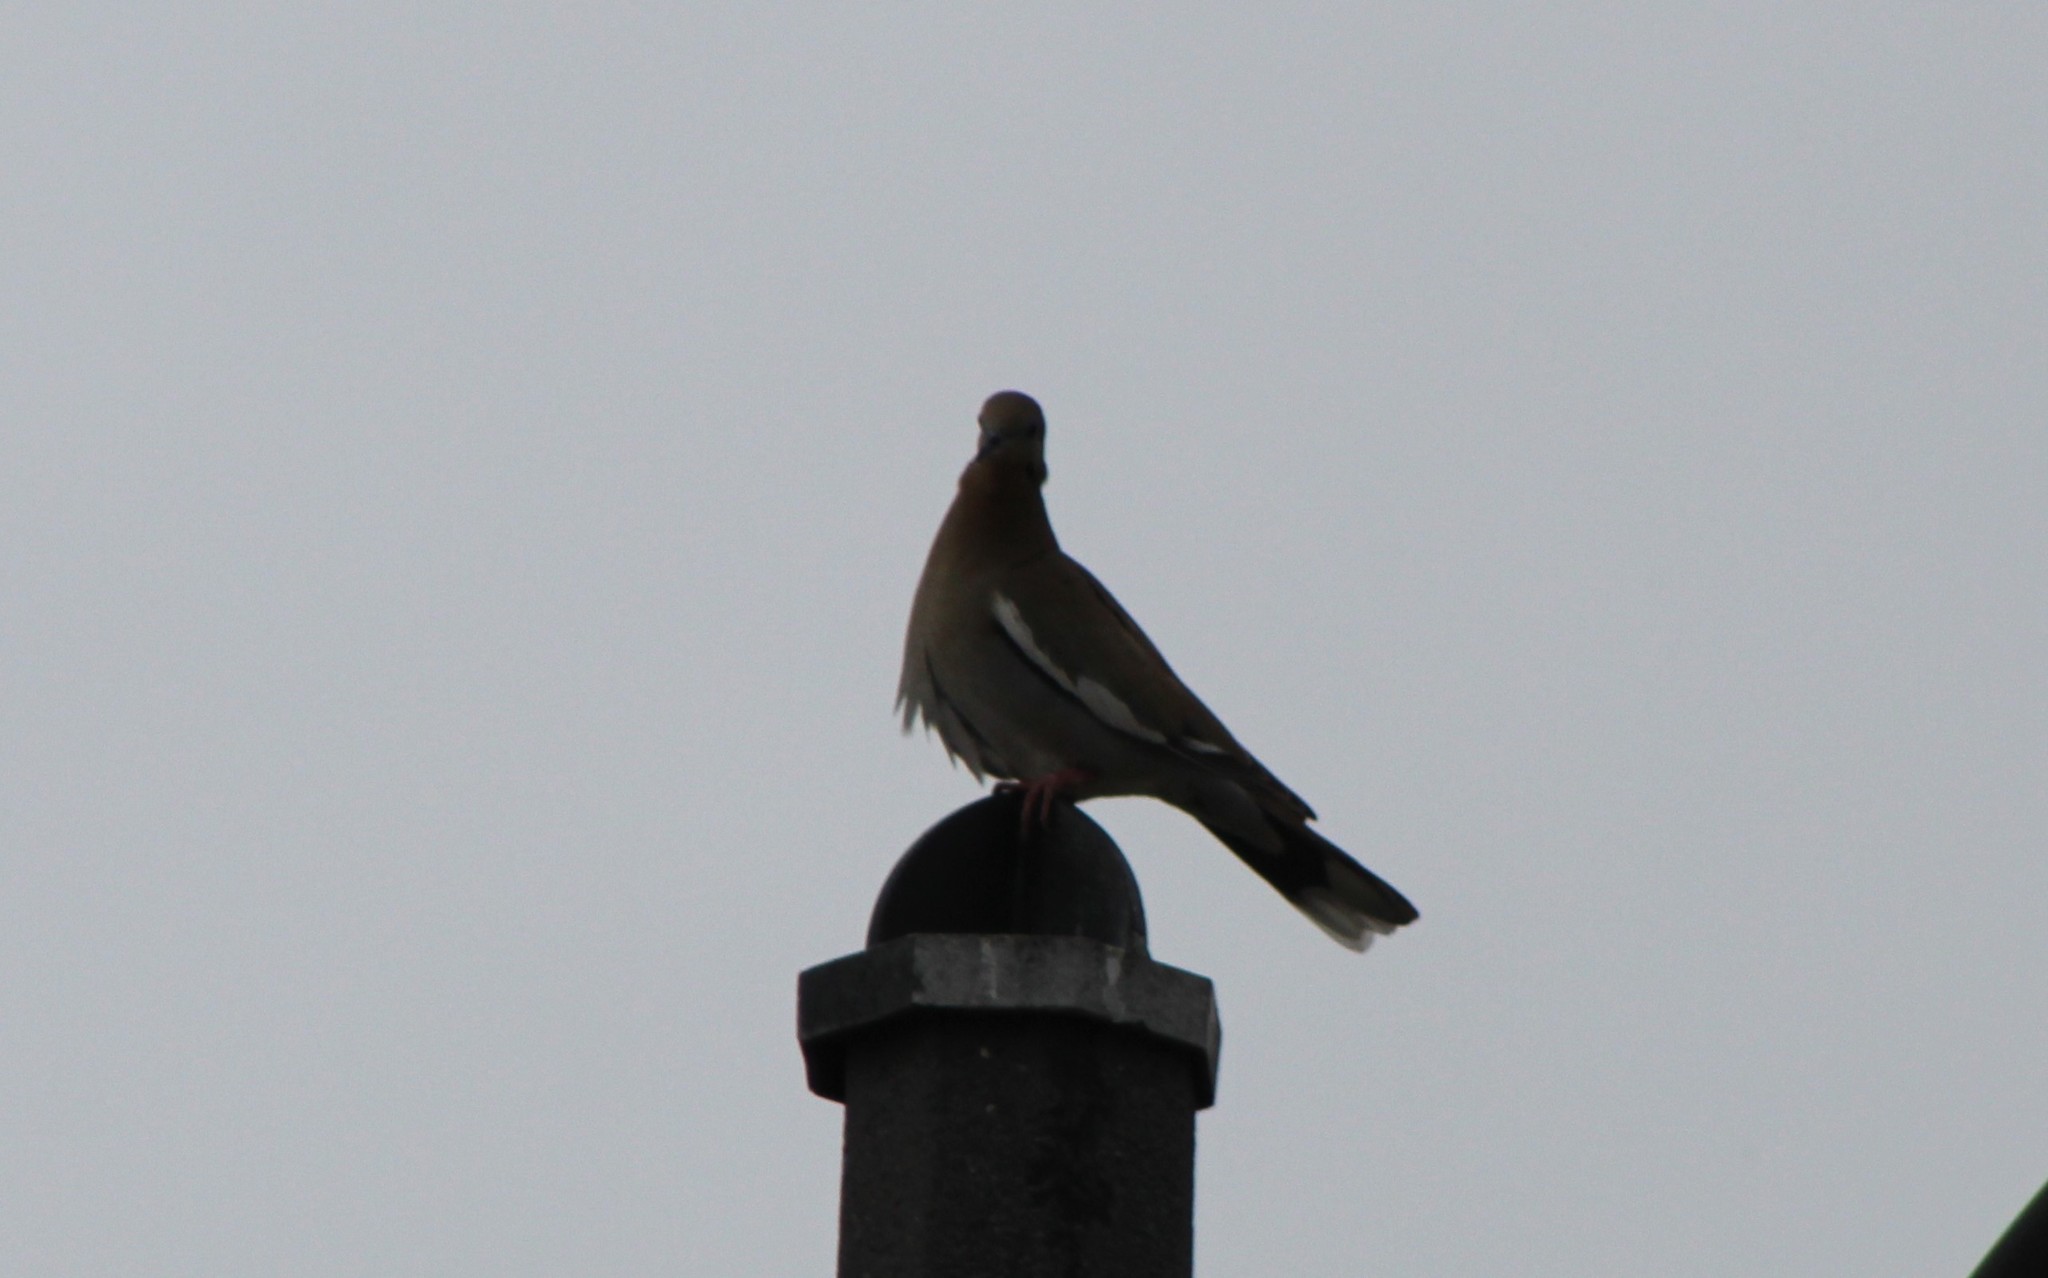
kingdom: Animalia
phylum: Chordata
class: Aves
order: Columbiformes
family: Columbidae
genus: Zenaida
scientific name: Zenaida asiatica
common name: White-winged dove
